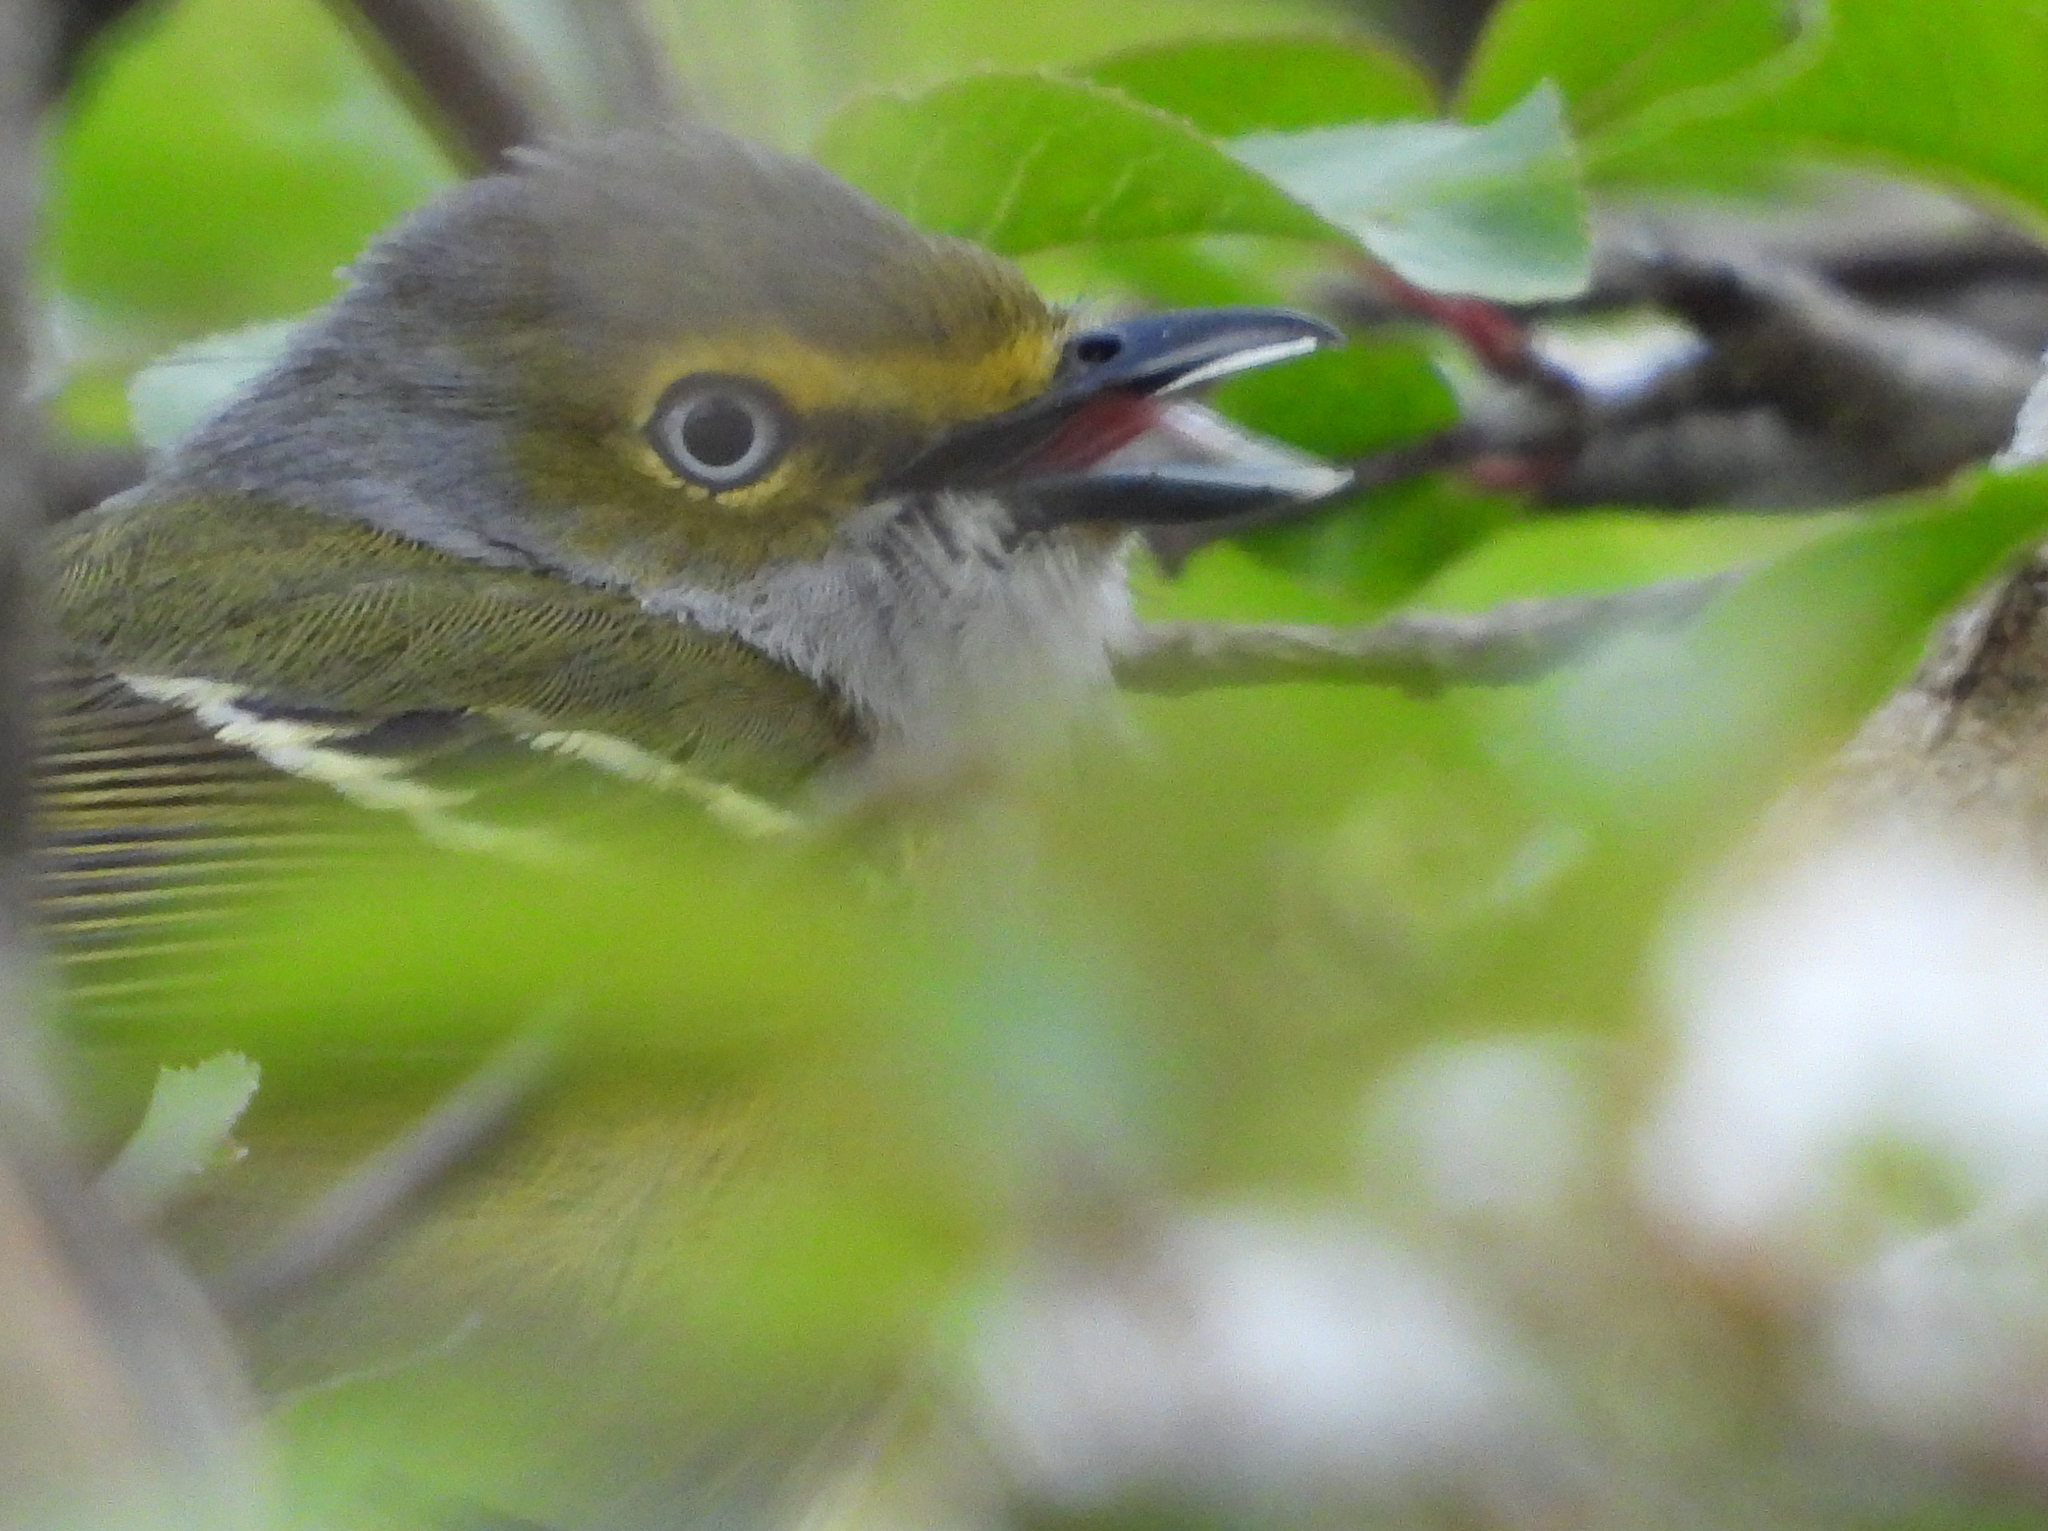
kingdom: Animalia
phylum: Chordata
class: Aves
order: Passeriformes
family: Vireonidae
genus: Vireo
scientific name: Vireo griseus
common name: White-eyed vireo
